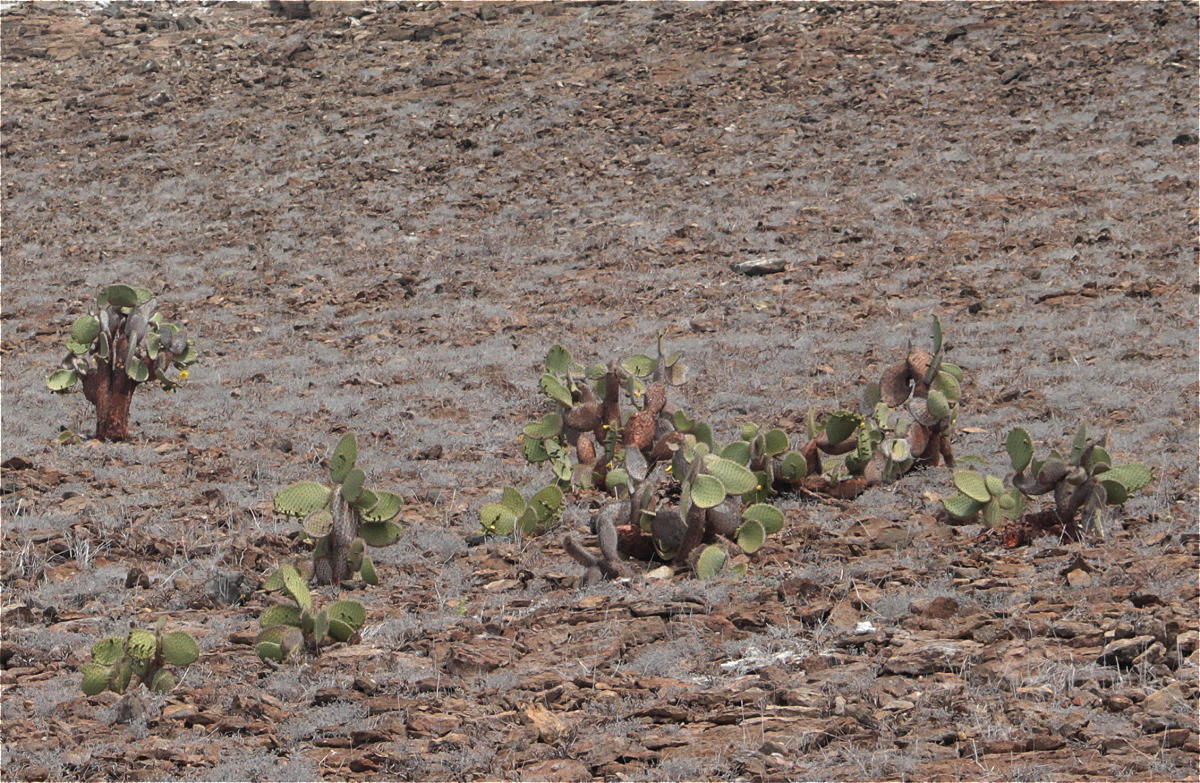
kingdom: Plantae
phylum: Tracheophyta
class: Magnoliopsida
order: Caryophyllales
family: Cactaceae
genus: Opuntia
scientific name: Opuntia galapageia
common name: Galápagos prickly pear
